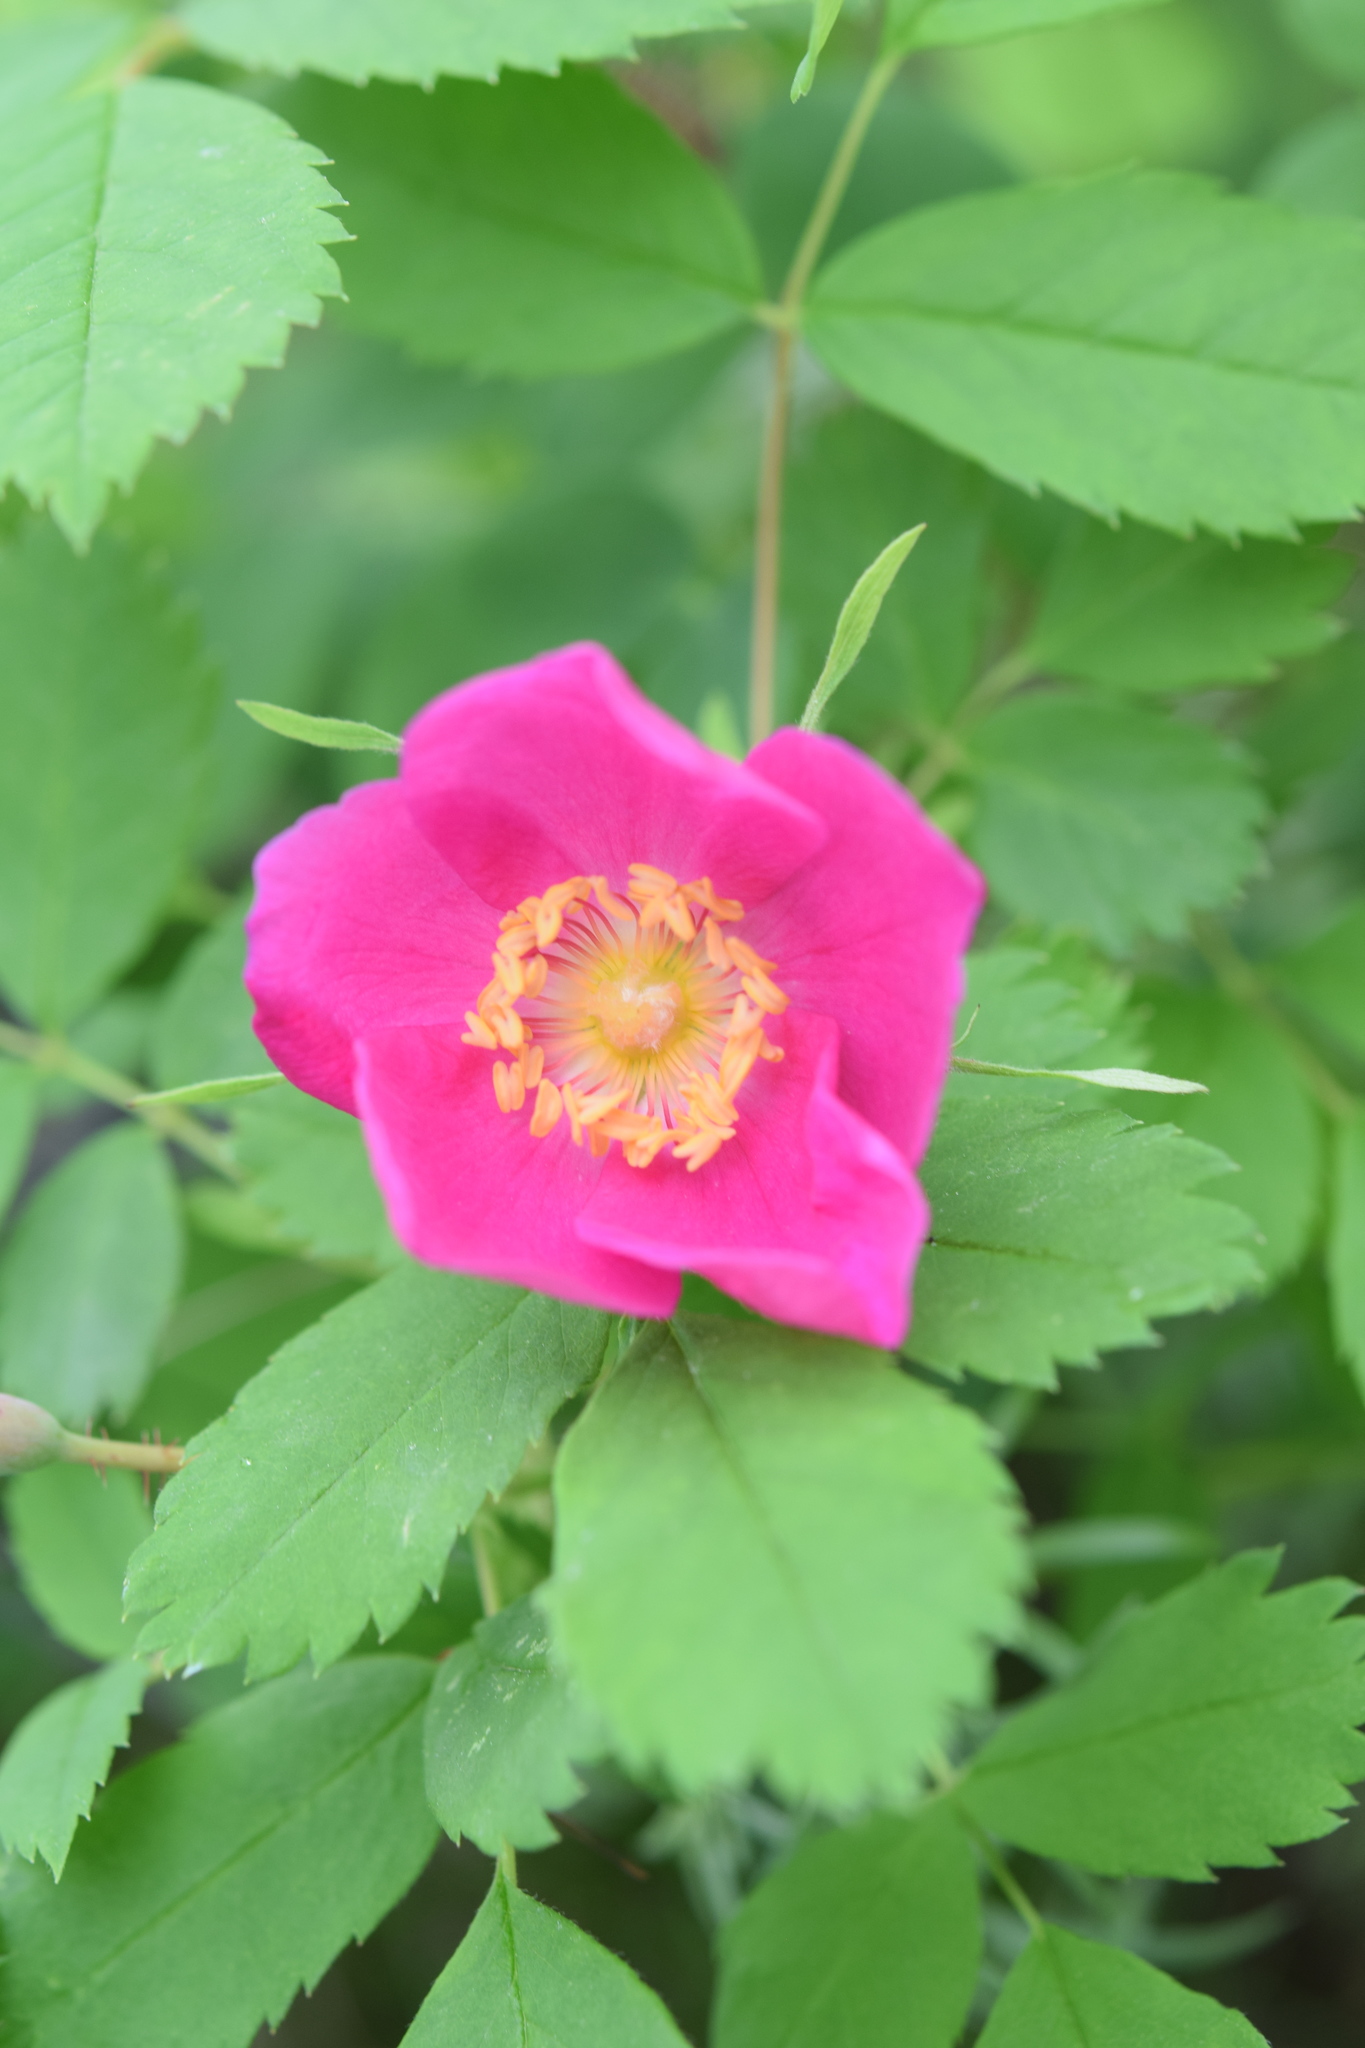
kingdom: Plantae
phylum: Tracheophyta
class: Magnoliopsida
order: Rosales
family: Rosaceae
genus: Rosa
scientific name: Rosa davurica
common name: Amur rose
